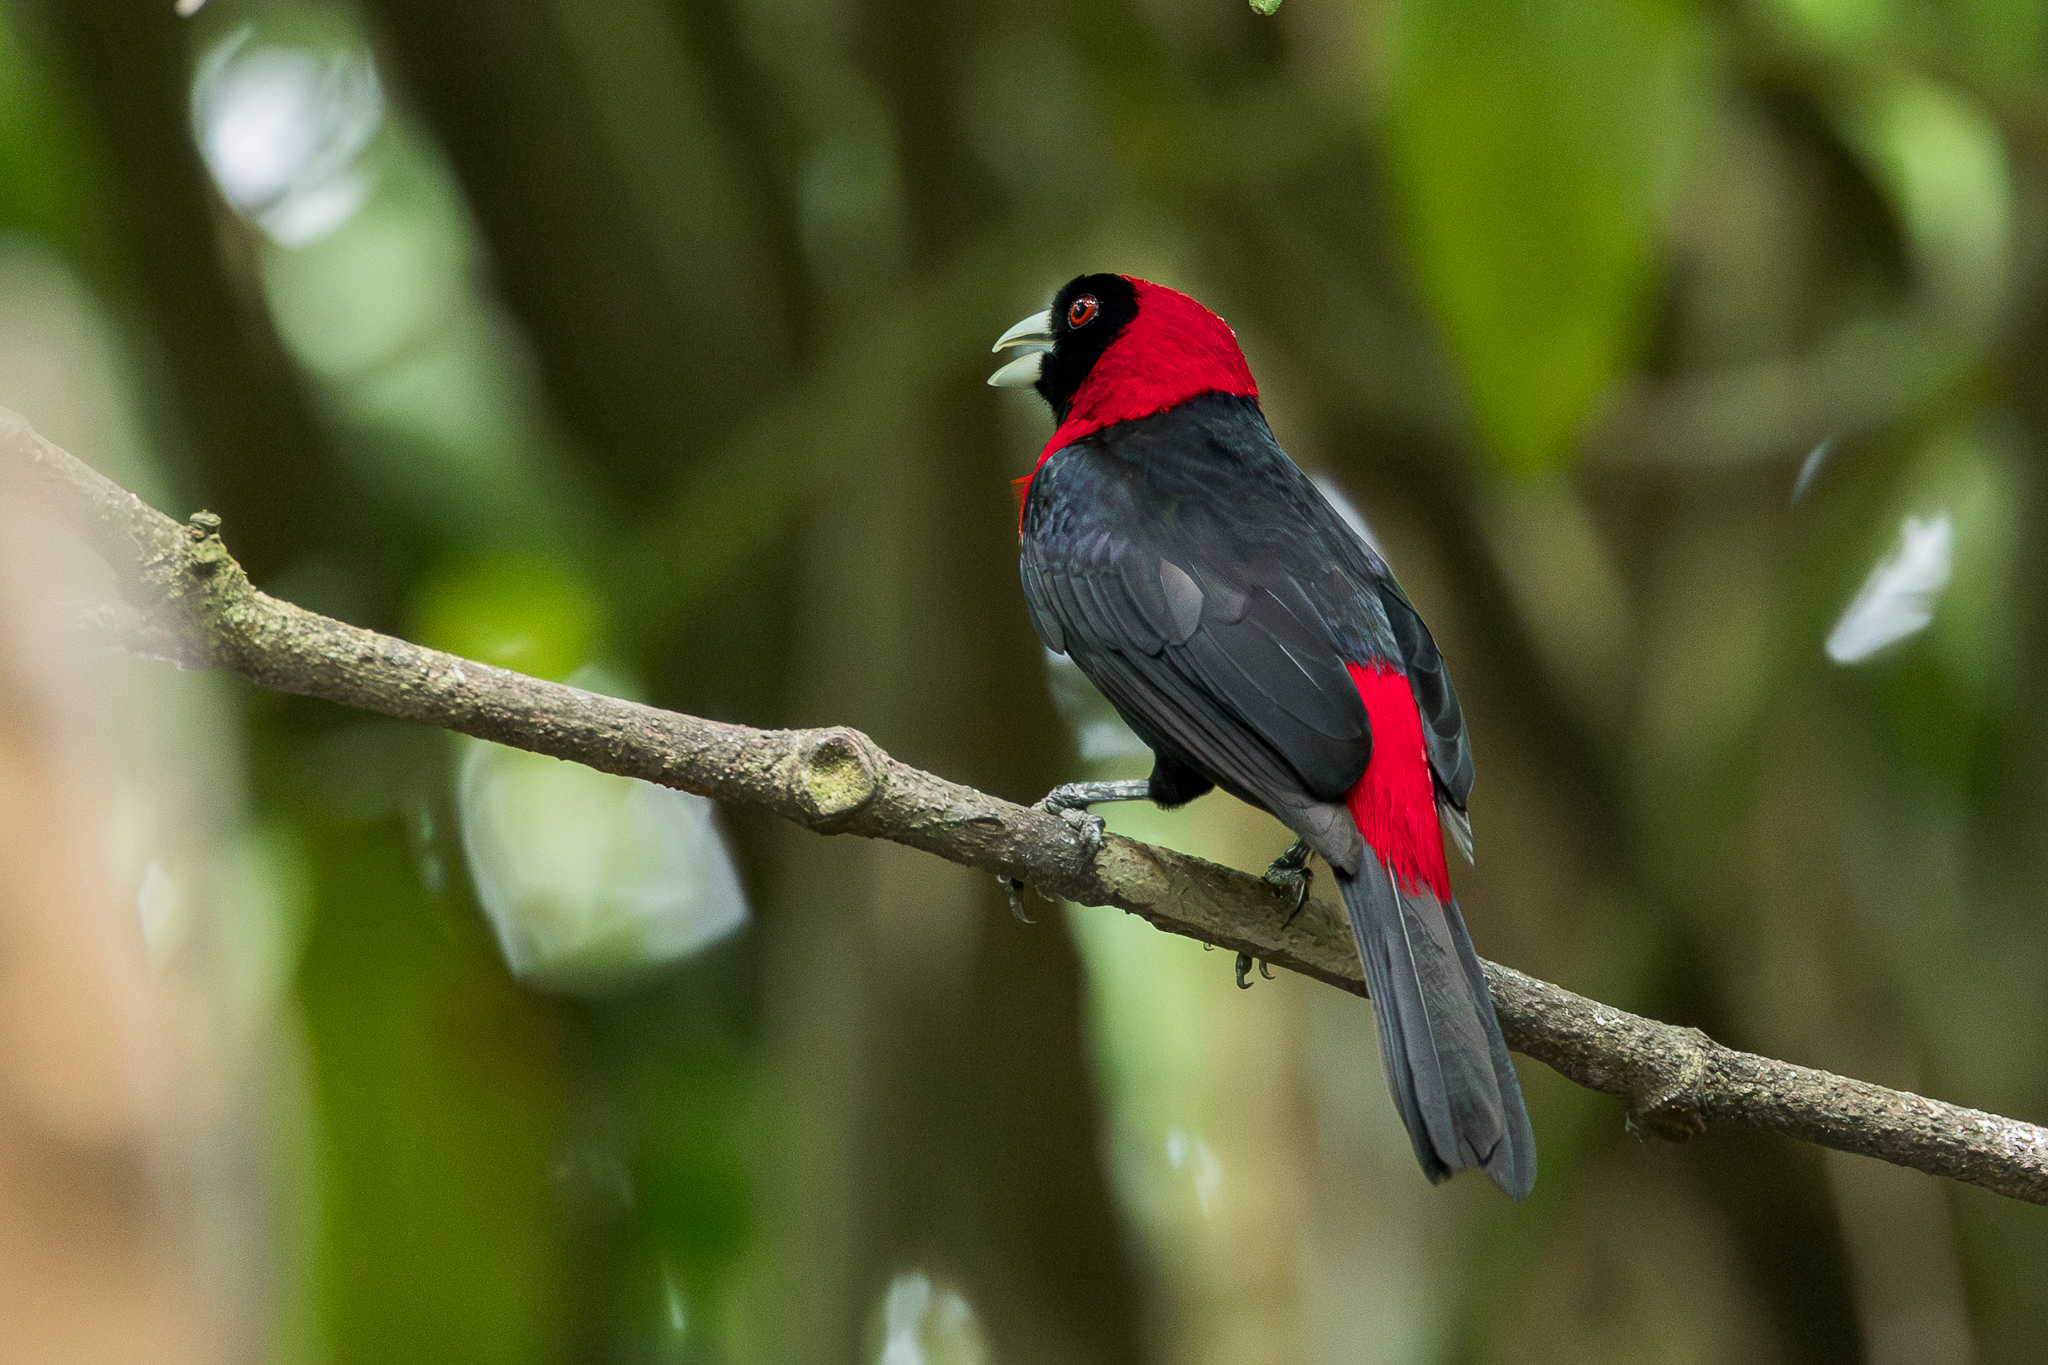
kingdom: Animalia
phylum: Chordata
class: Aves
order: Passeriformes
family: Thraupidae
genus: Ramphocelus
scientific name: Ramphocelus sanguinolentus
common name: Crimson-collared tanager
